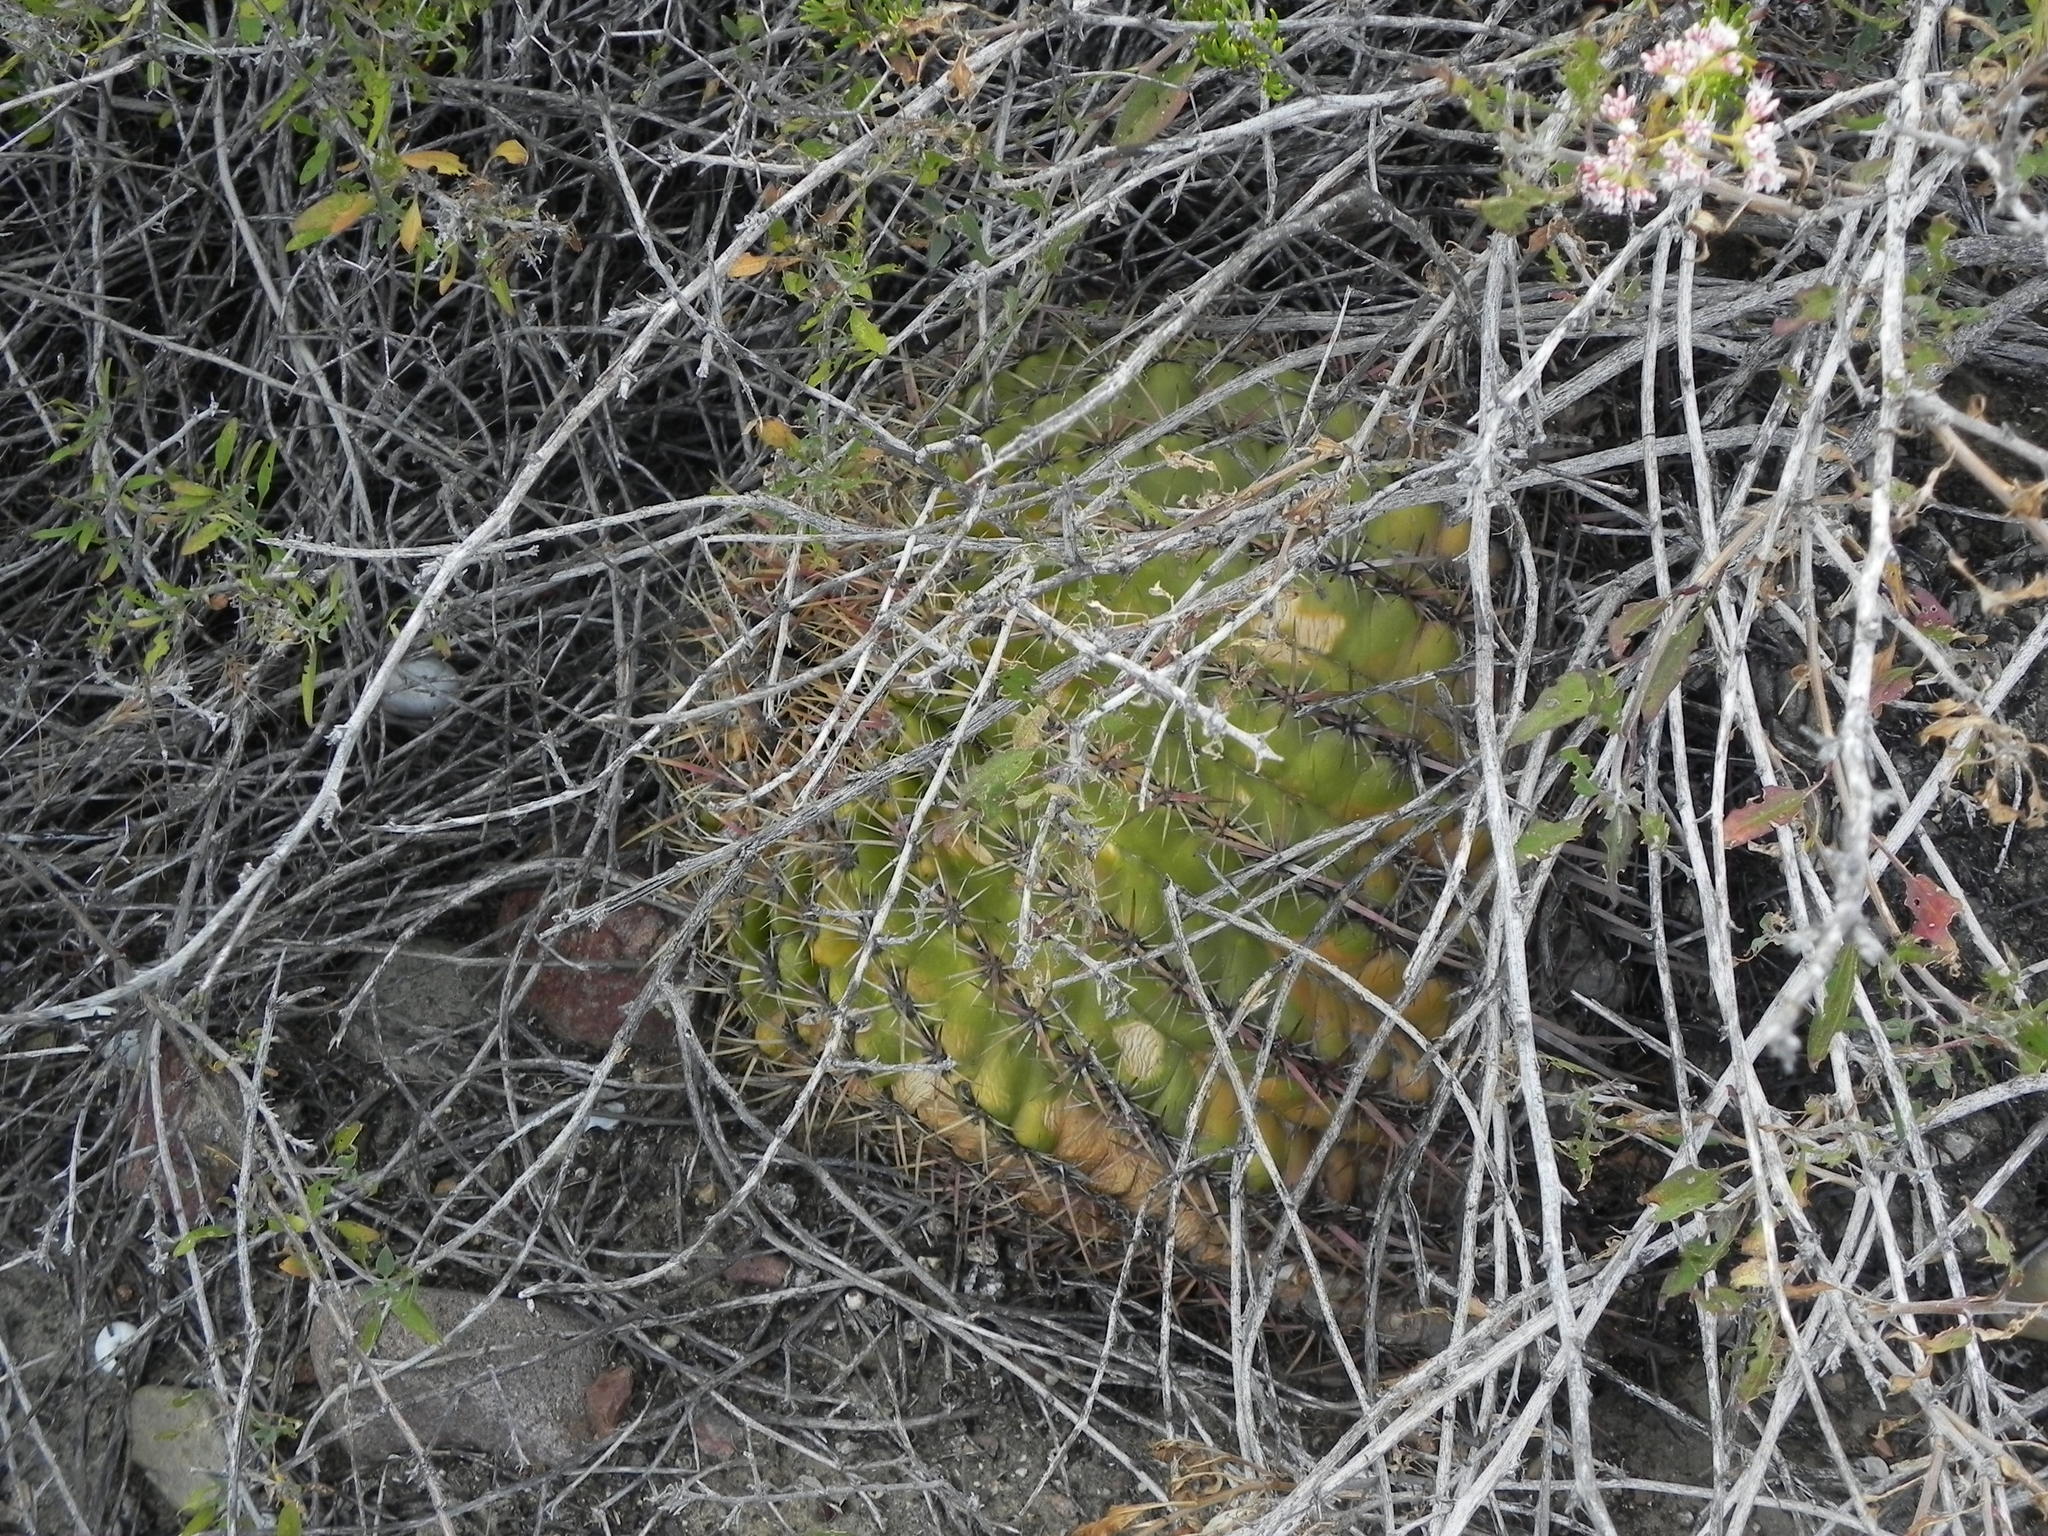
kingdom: Plantae
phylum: Tracheophyta
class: Magnoliopsida
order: Caryophyllales
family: Cactaceae
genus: Ferocactus
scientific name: Ferocactus viridescens
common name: San diego barrel cactus
